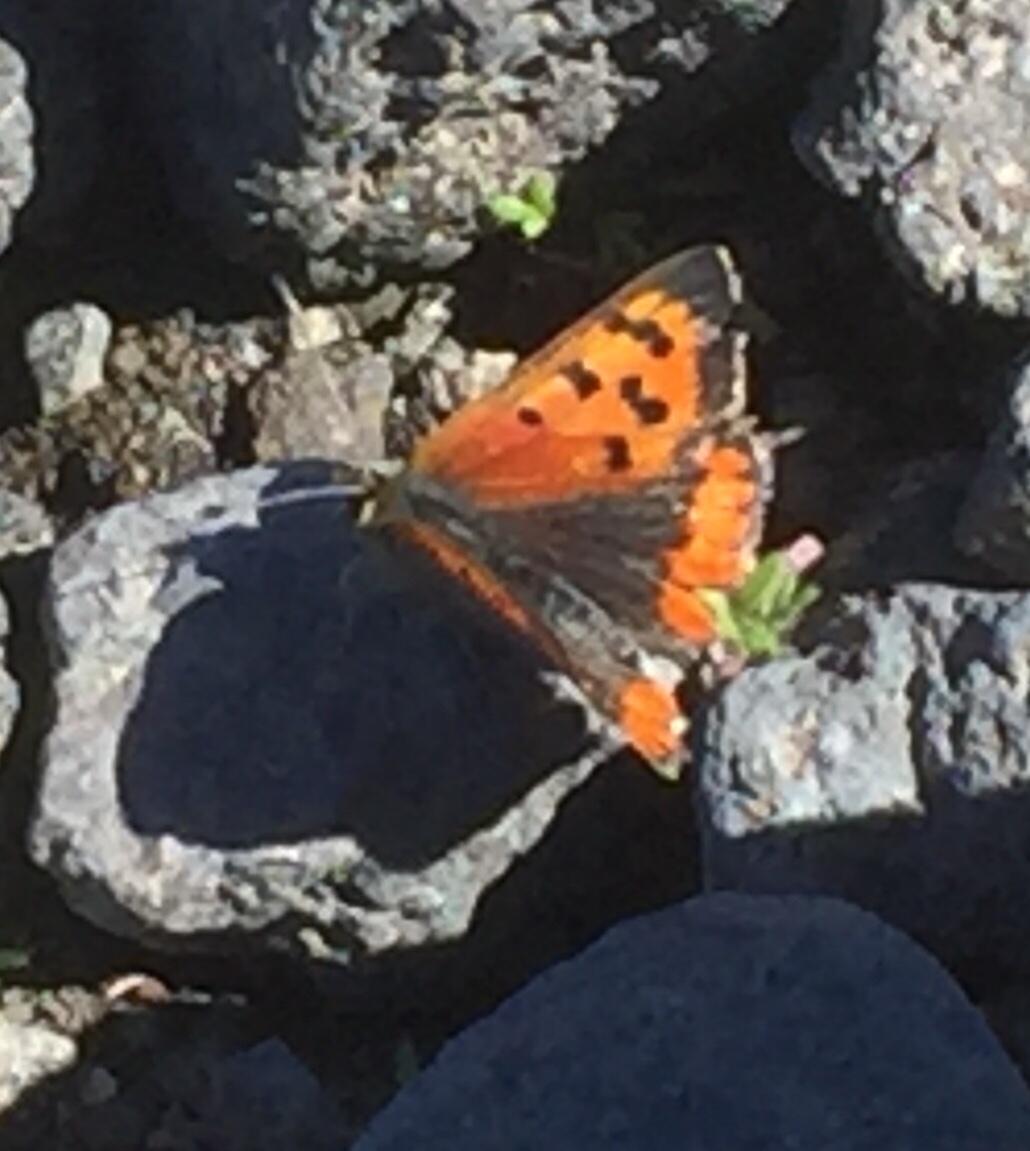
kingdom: Animalia
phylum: Arthropoda
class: Insecta
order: Lepidoptera
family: Lycaenidae
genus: Lycaena
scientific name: Lycaena phlaeas
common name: Small copper
